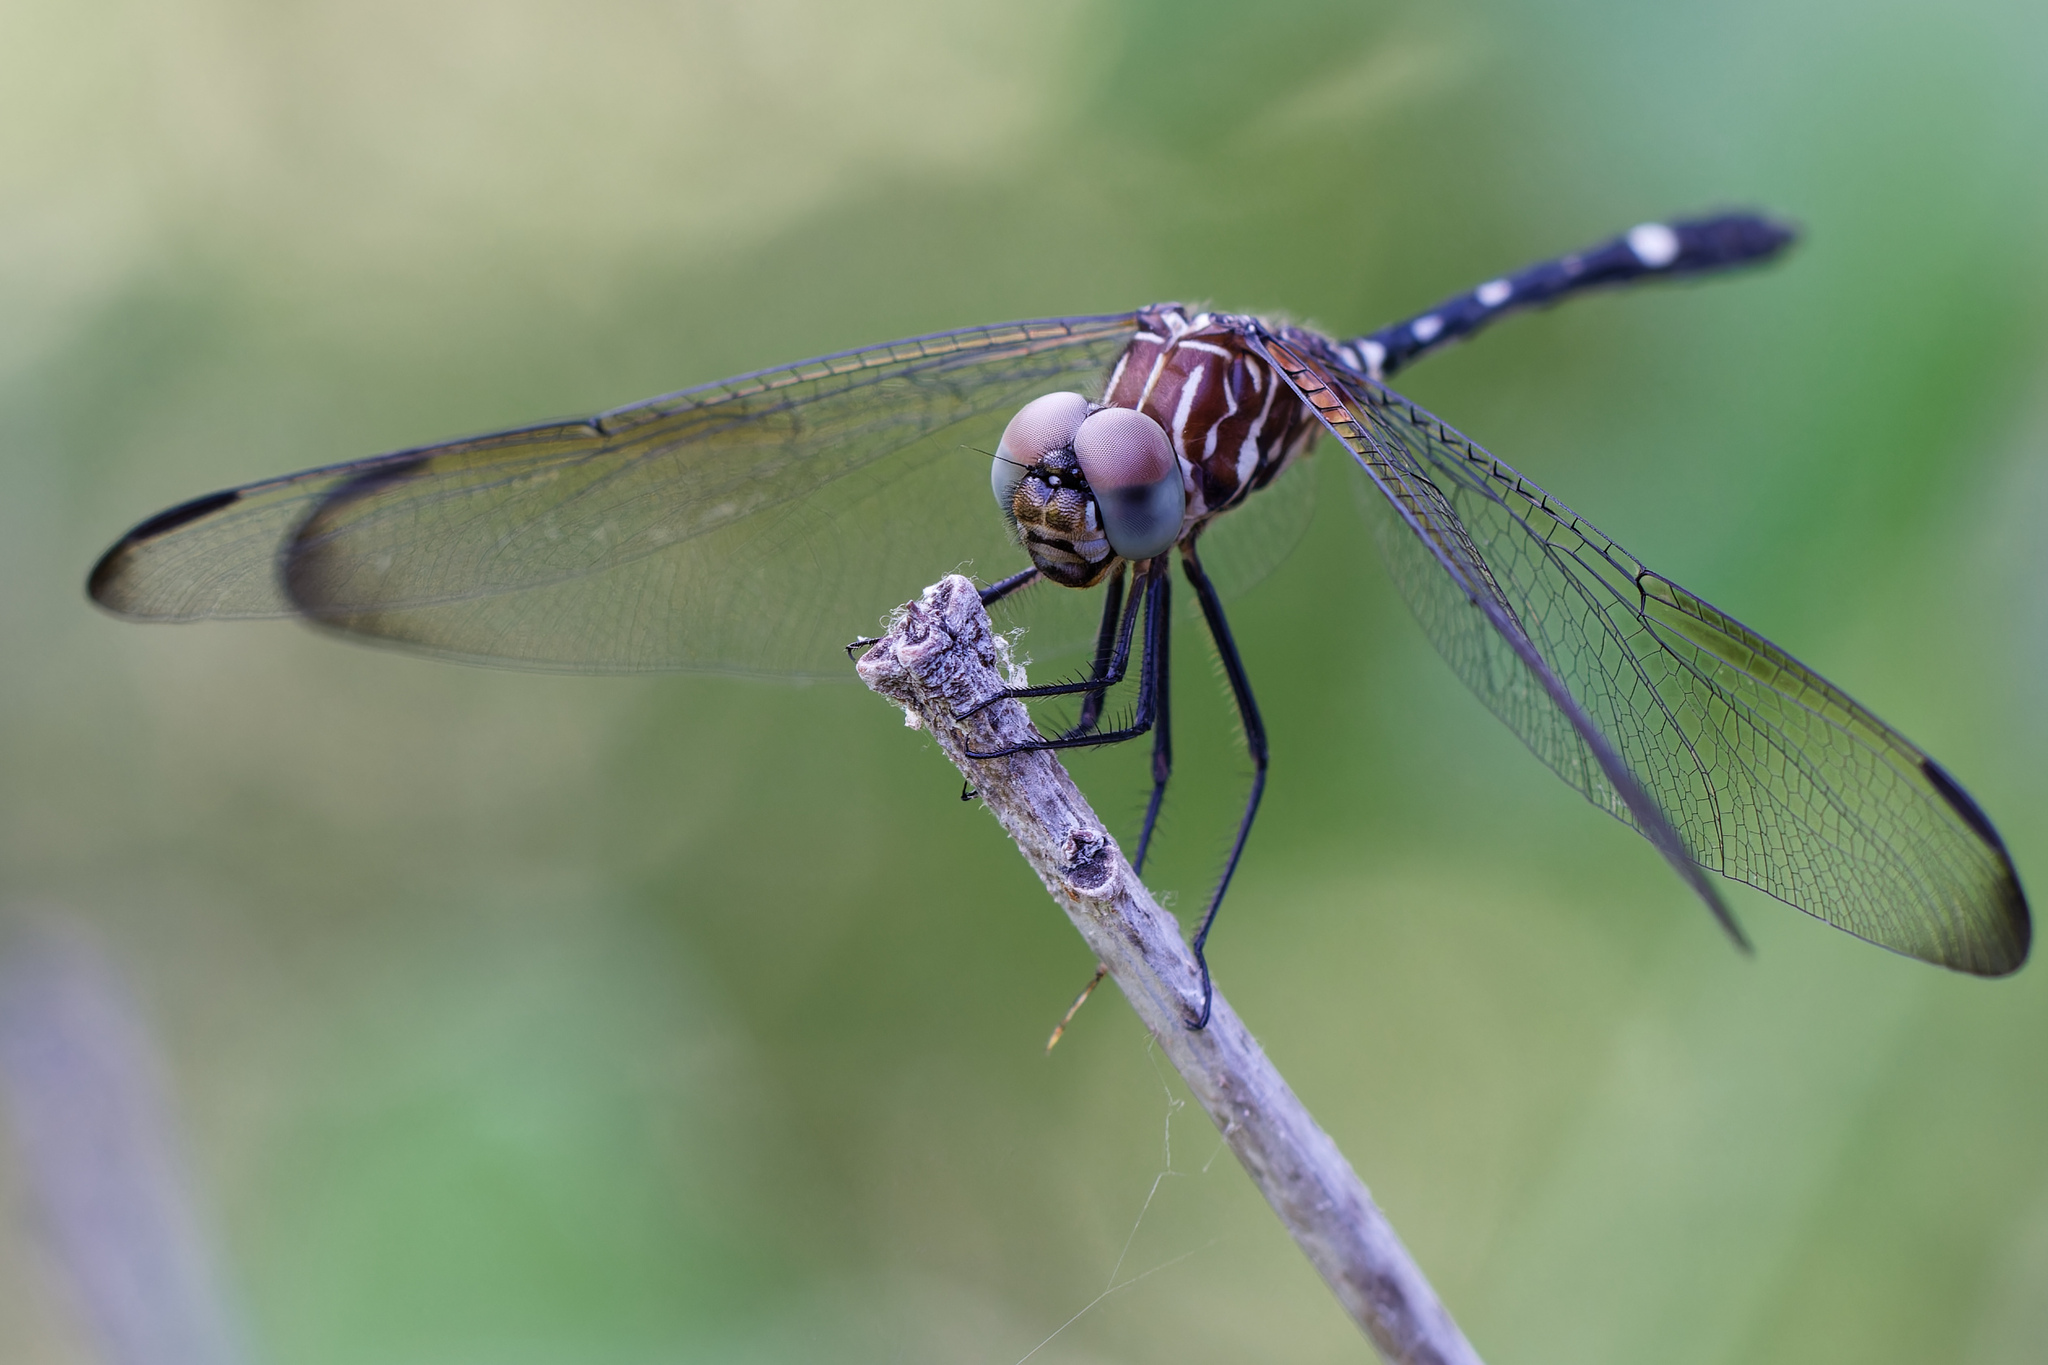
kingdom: Animalia
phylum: Arthropoda
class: Insecta
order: Odonata
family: Libellulidae
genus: Dythemis
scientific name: Dythemis velox
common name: Swift setwing
